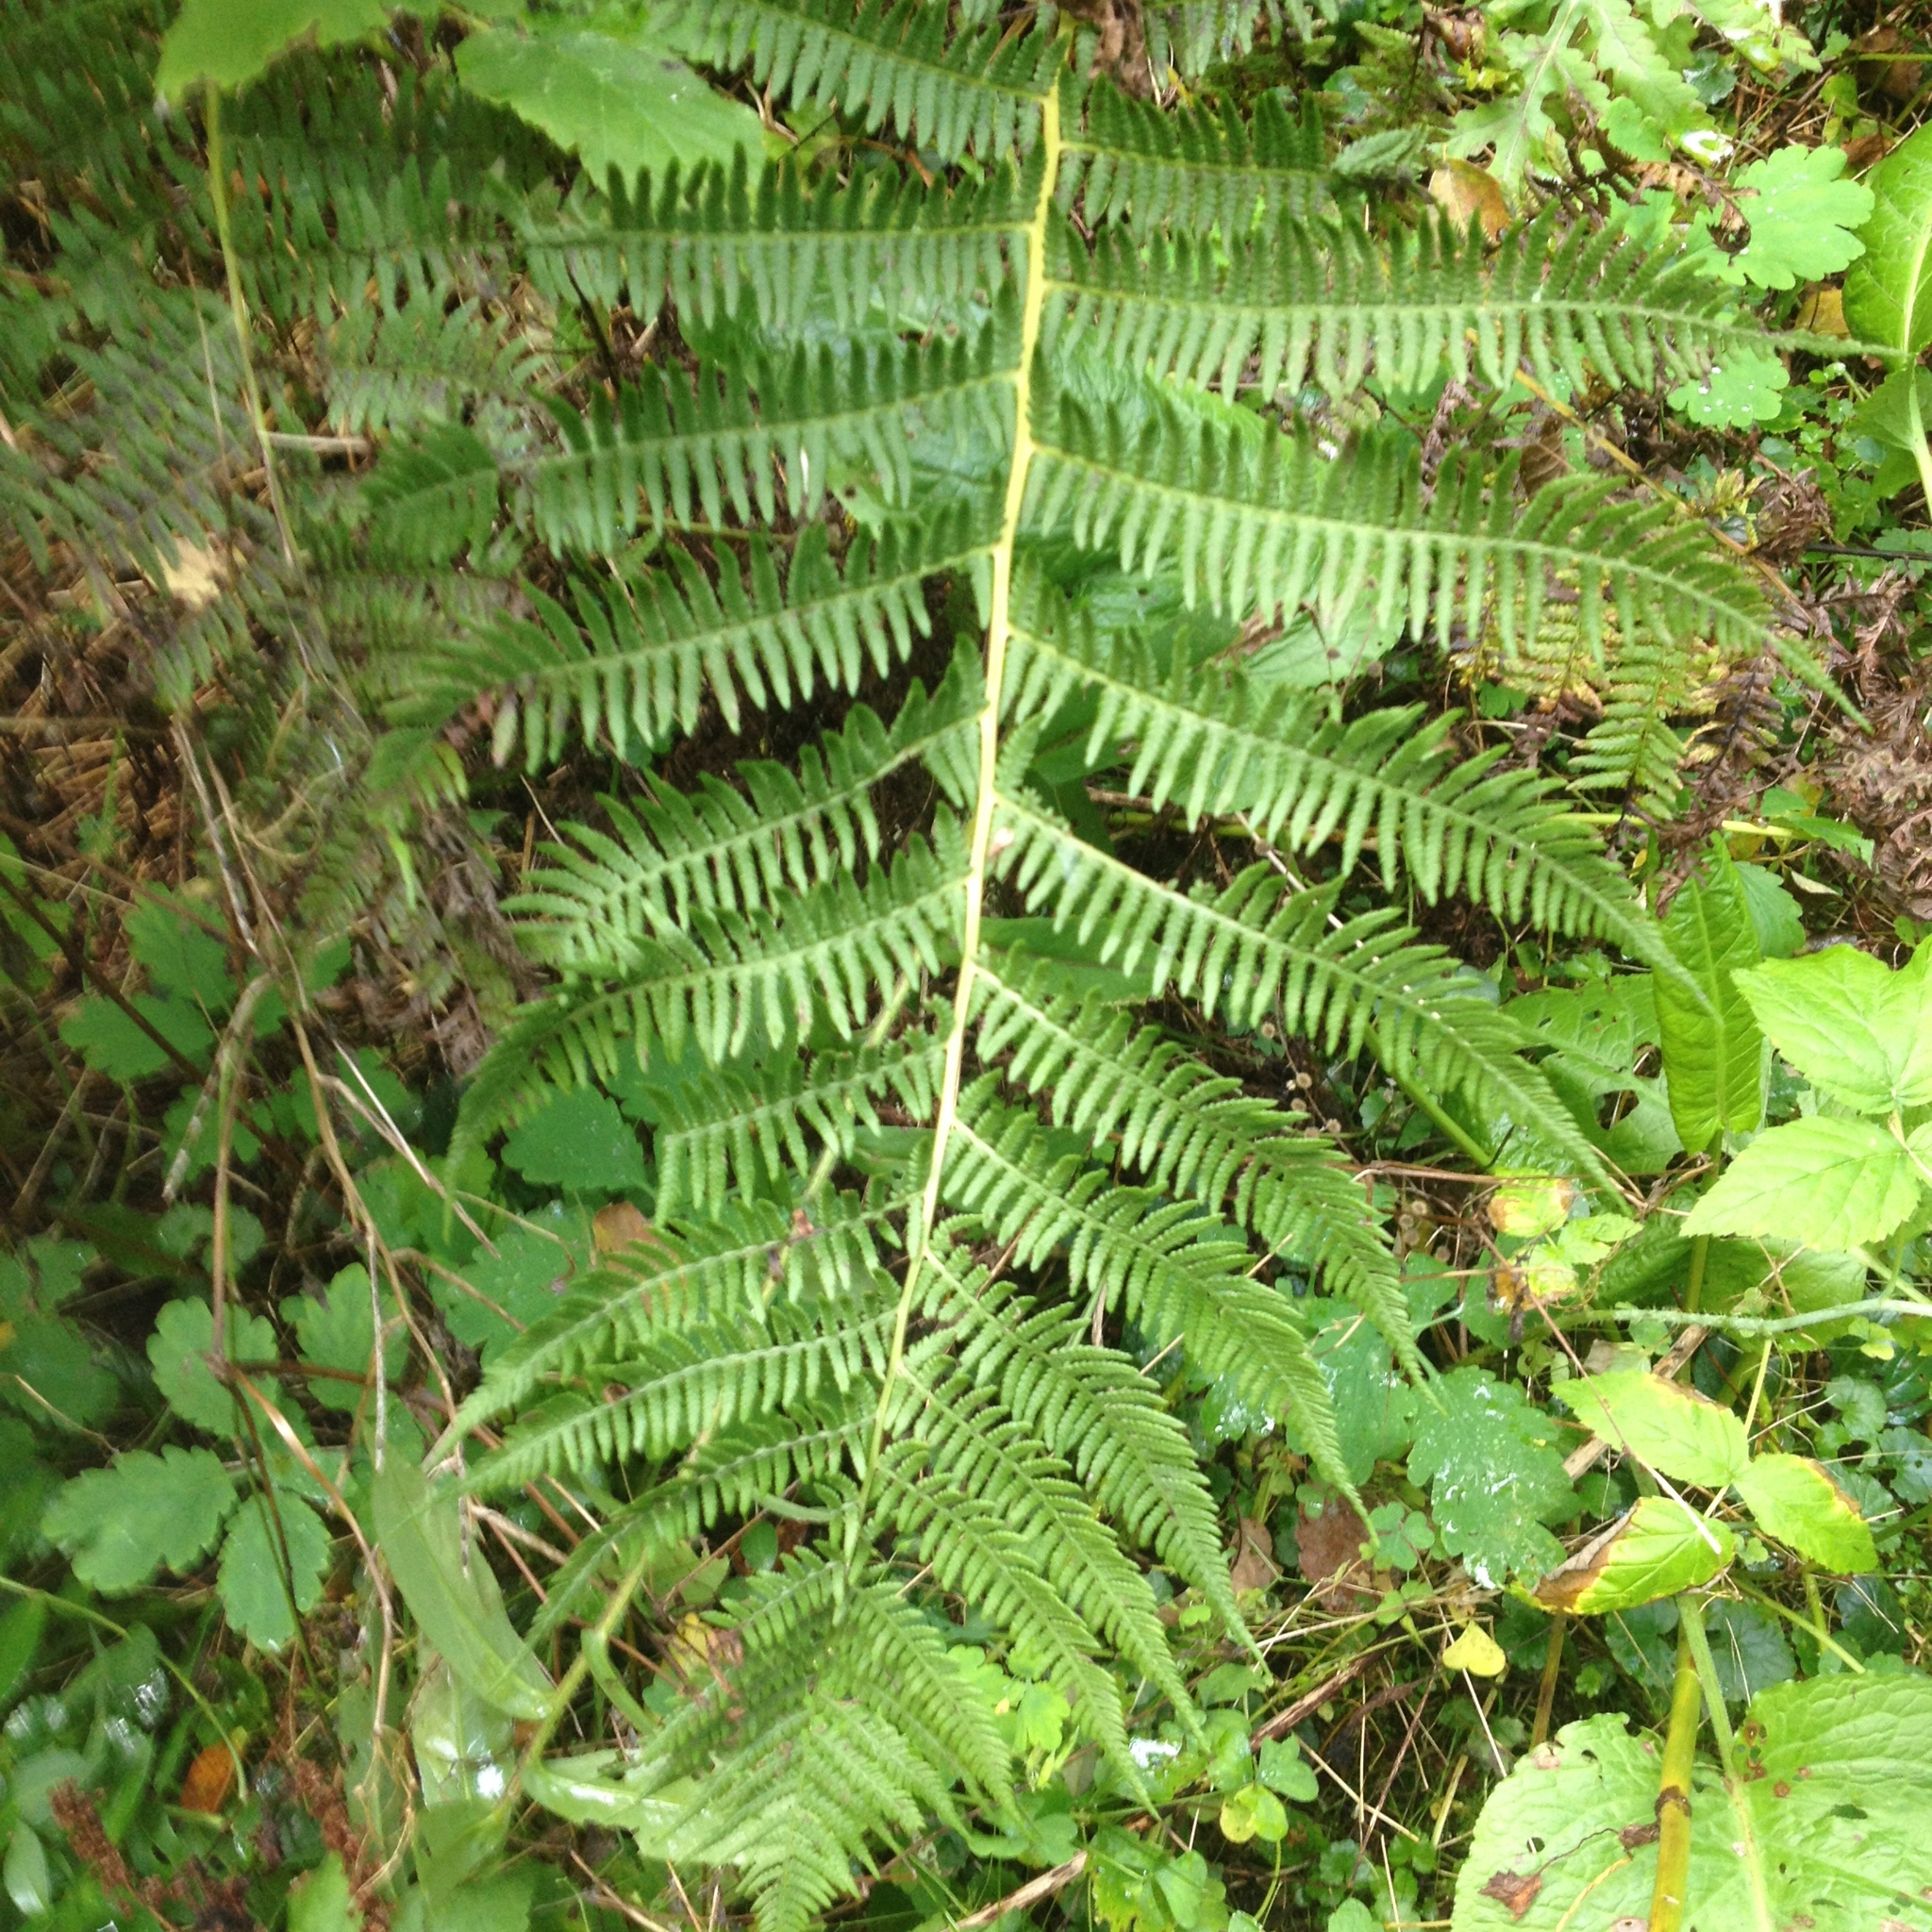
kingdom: Plantae
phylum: Tracheophyta
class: Polypodiopsida
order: Polypodiales
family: Athyriaceae
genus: Athyrium
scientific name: Athyrium angustum
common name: Northern lady fern
